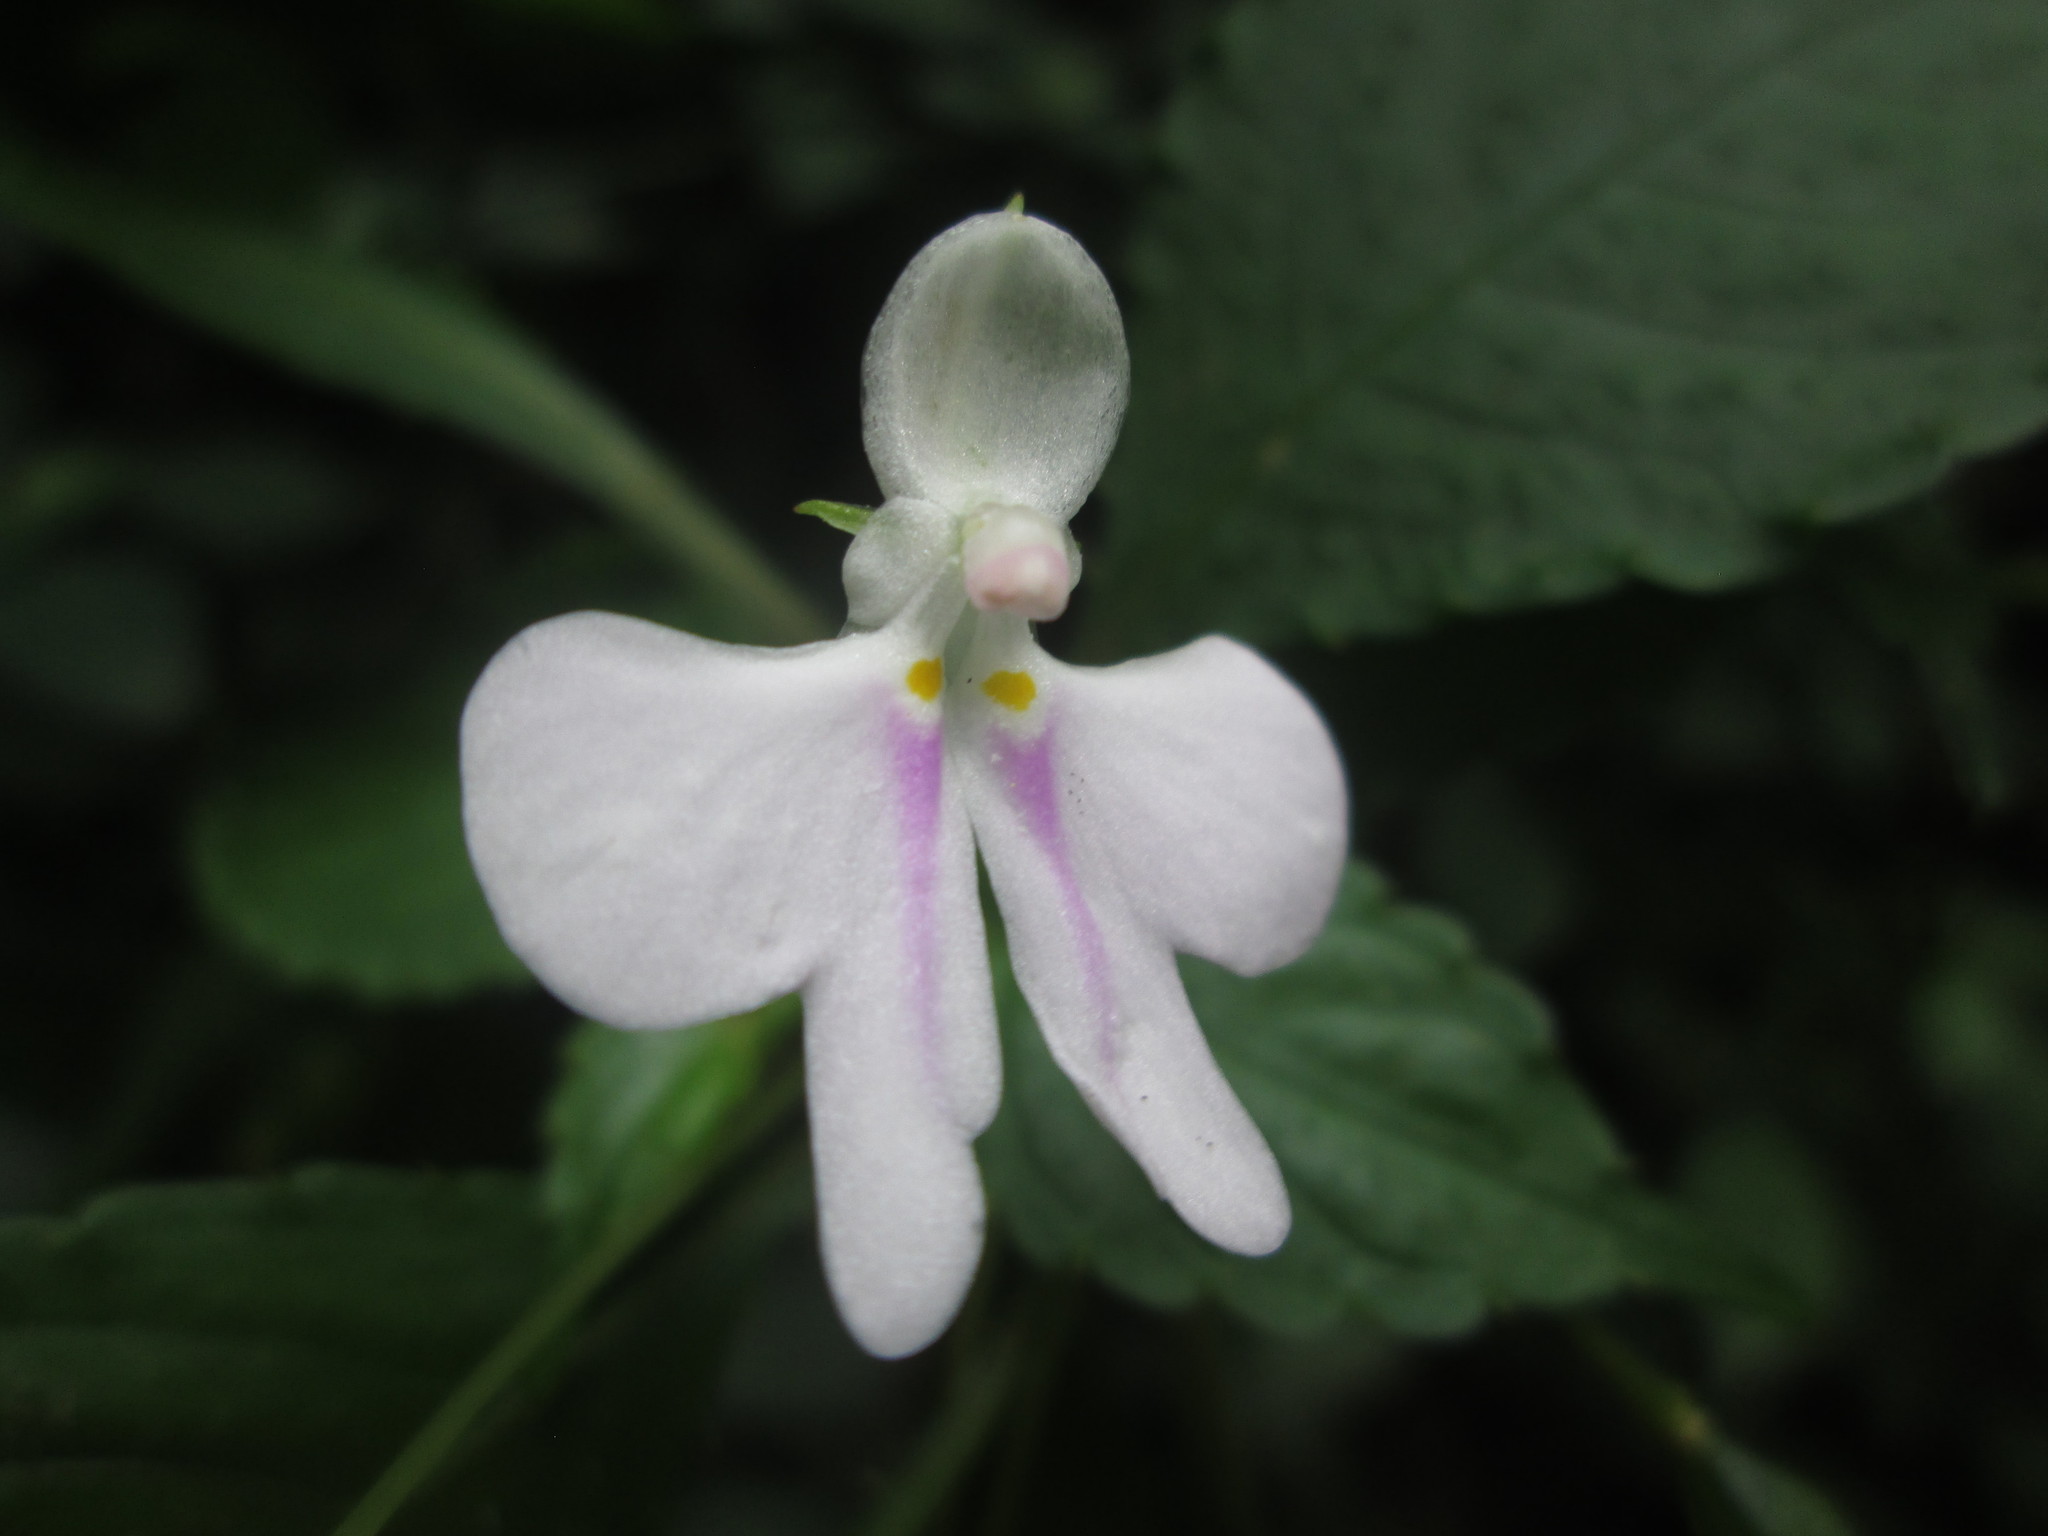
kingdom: Plantae
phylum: Tracheophyta
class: Magnoliopsida
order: Ericales
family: Balsaminaceae
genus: Impatiens
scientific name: Impatiens hochstetteri
